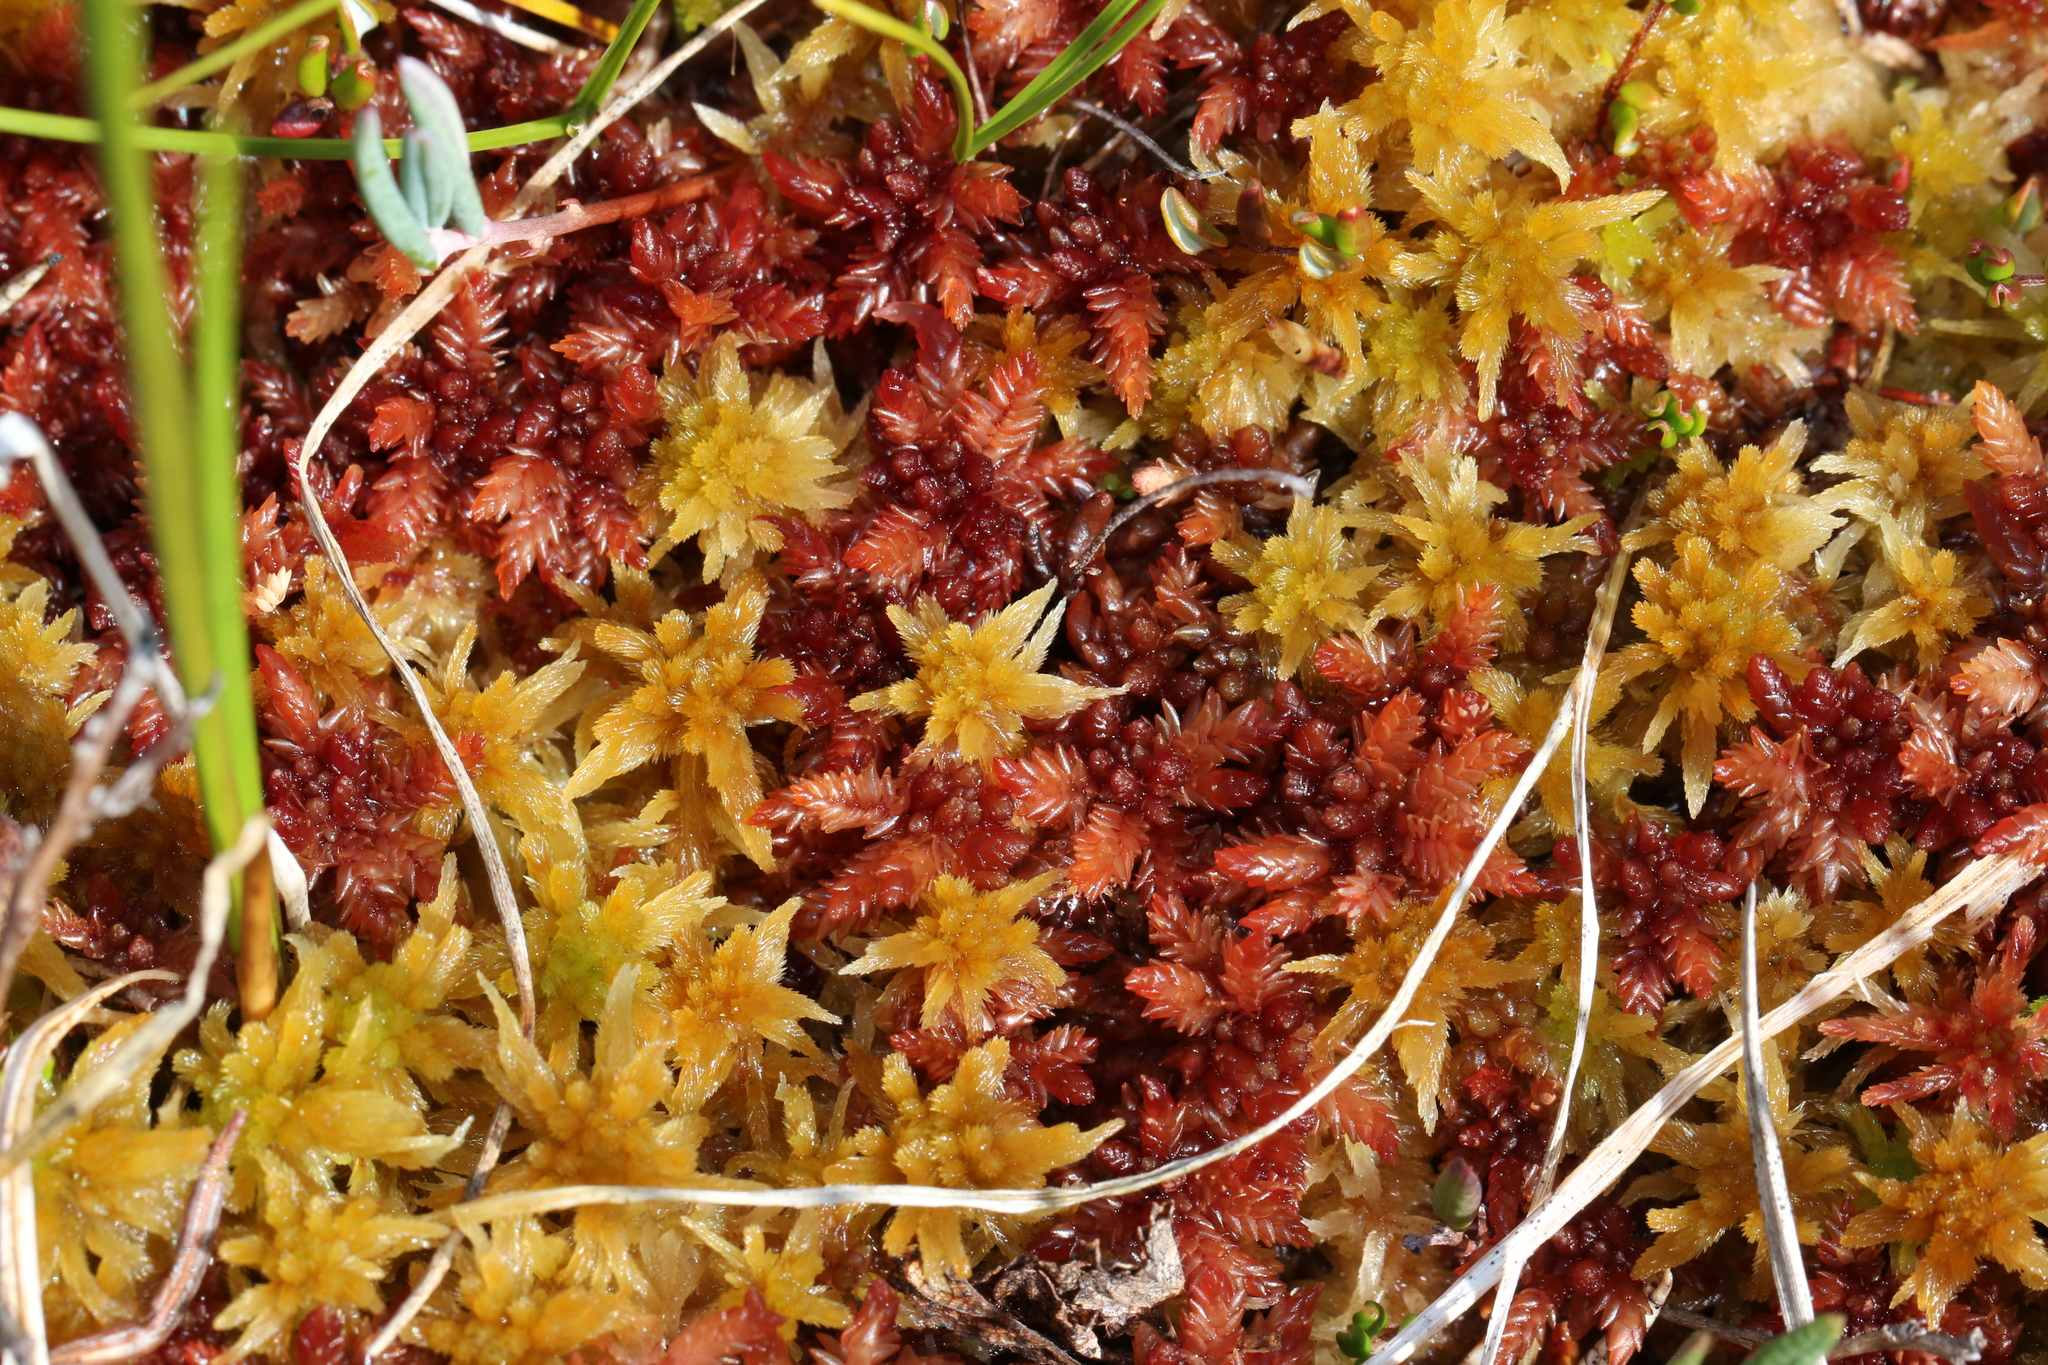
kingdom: Plantae
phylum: Bryophyta
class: Sphagnopsida
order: Sphagnales
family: Sphagnaceae
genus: Sphagnum
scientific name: Sphagnum divinum
